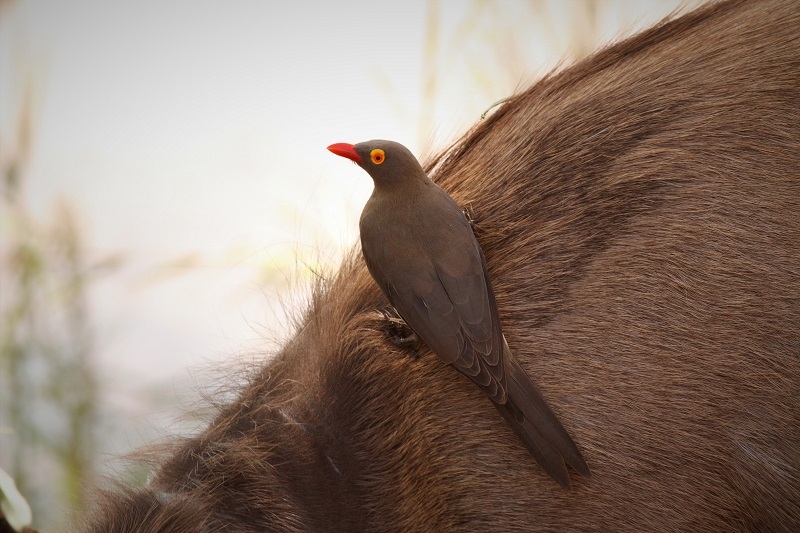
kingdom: Animalia
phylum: Chordata
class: Aves
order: Passeriformes
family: Buphagidae
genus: Buphagus
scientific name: Buphagus erythrorhynchus
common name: Red-billed oxpecker
